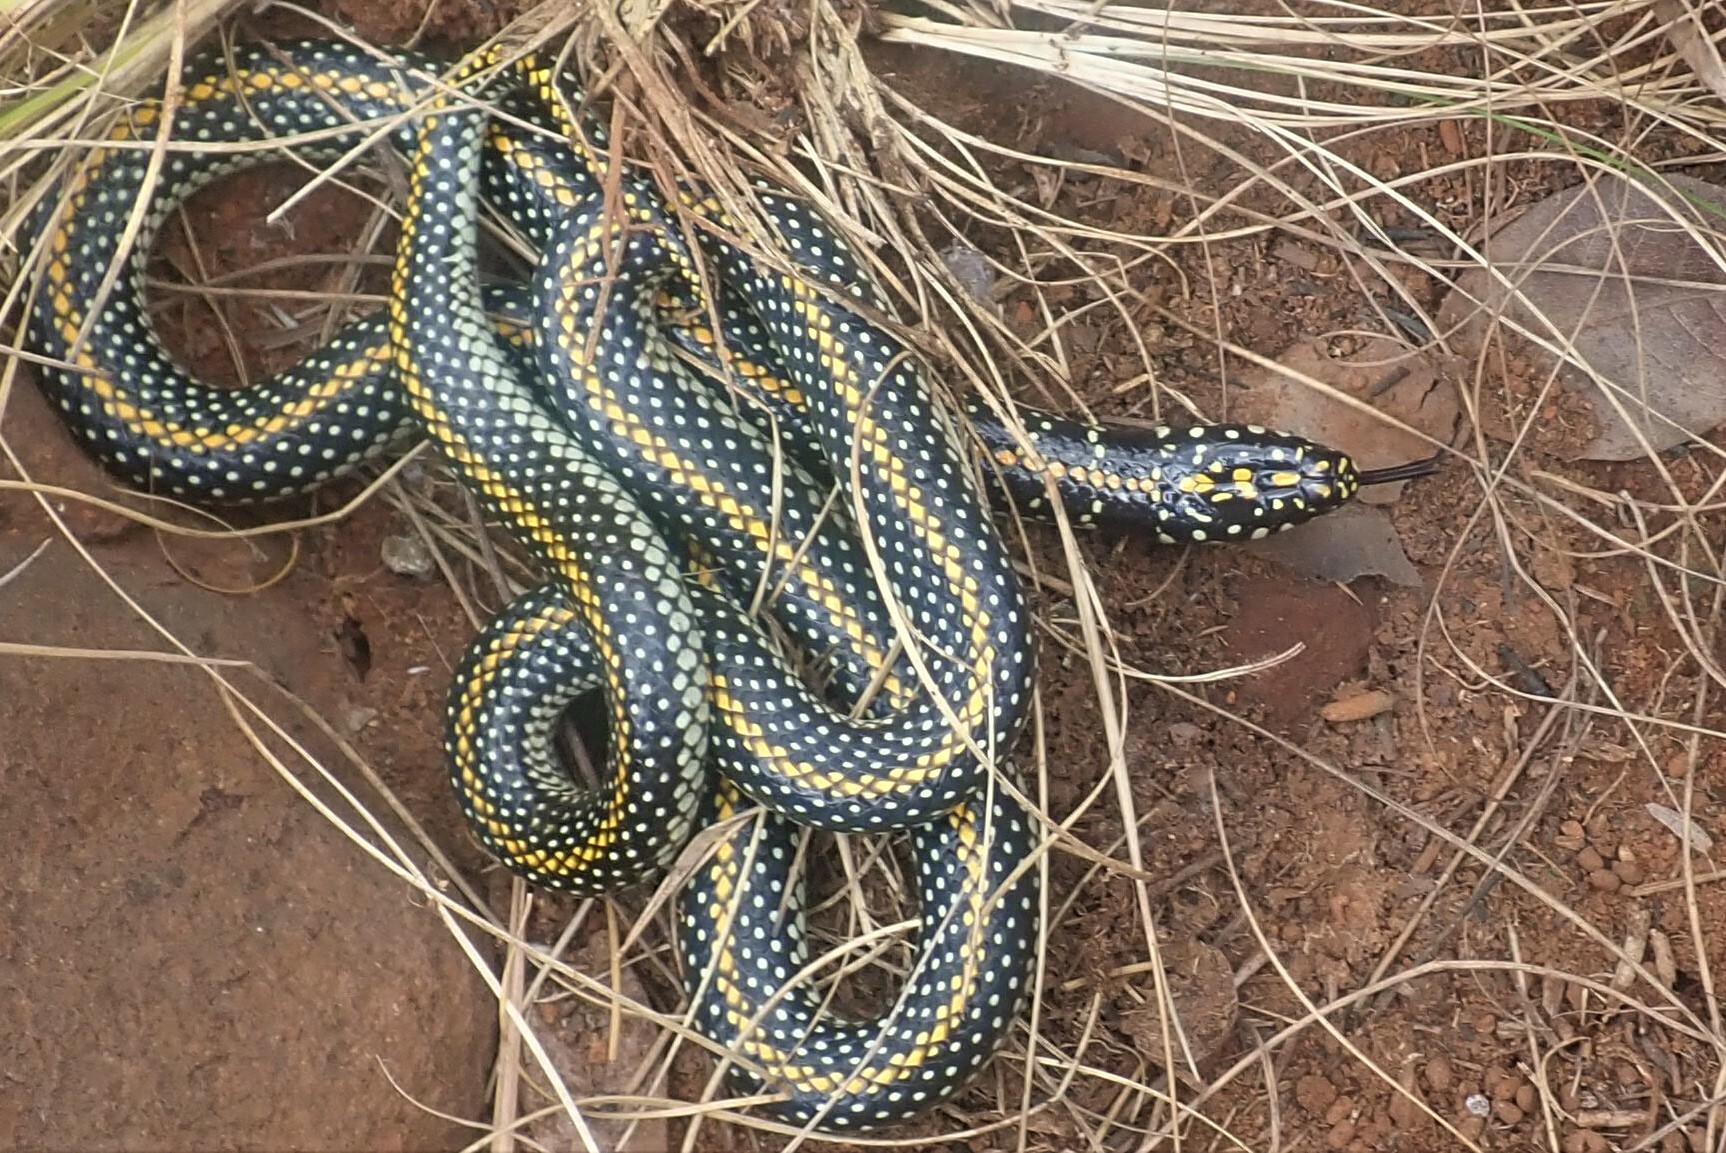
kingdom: Animalia
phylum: Chordata
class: Squamata
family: Atractaspididae
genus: Homoroselaps
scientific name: Homoroselaps lacteus
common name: Spotted harlequin snake
